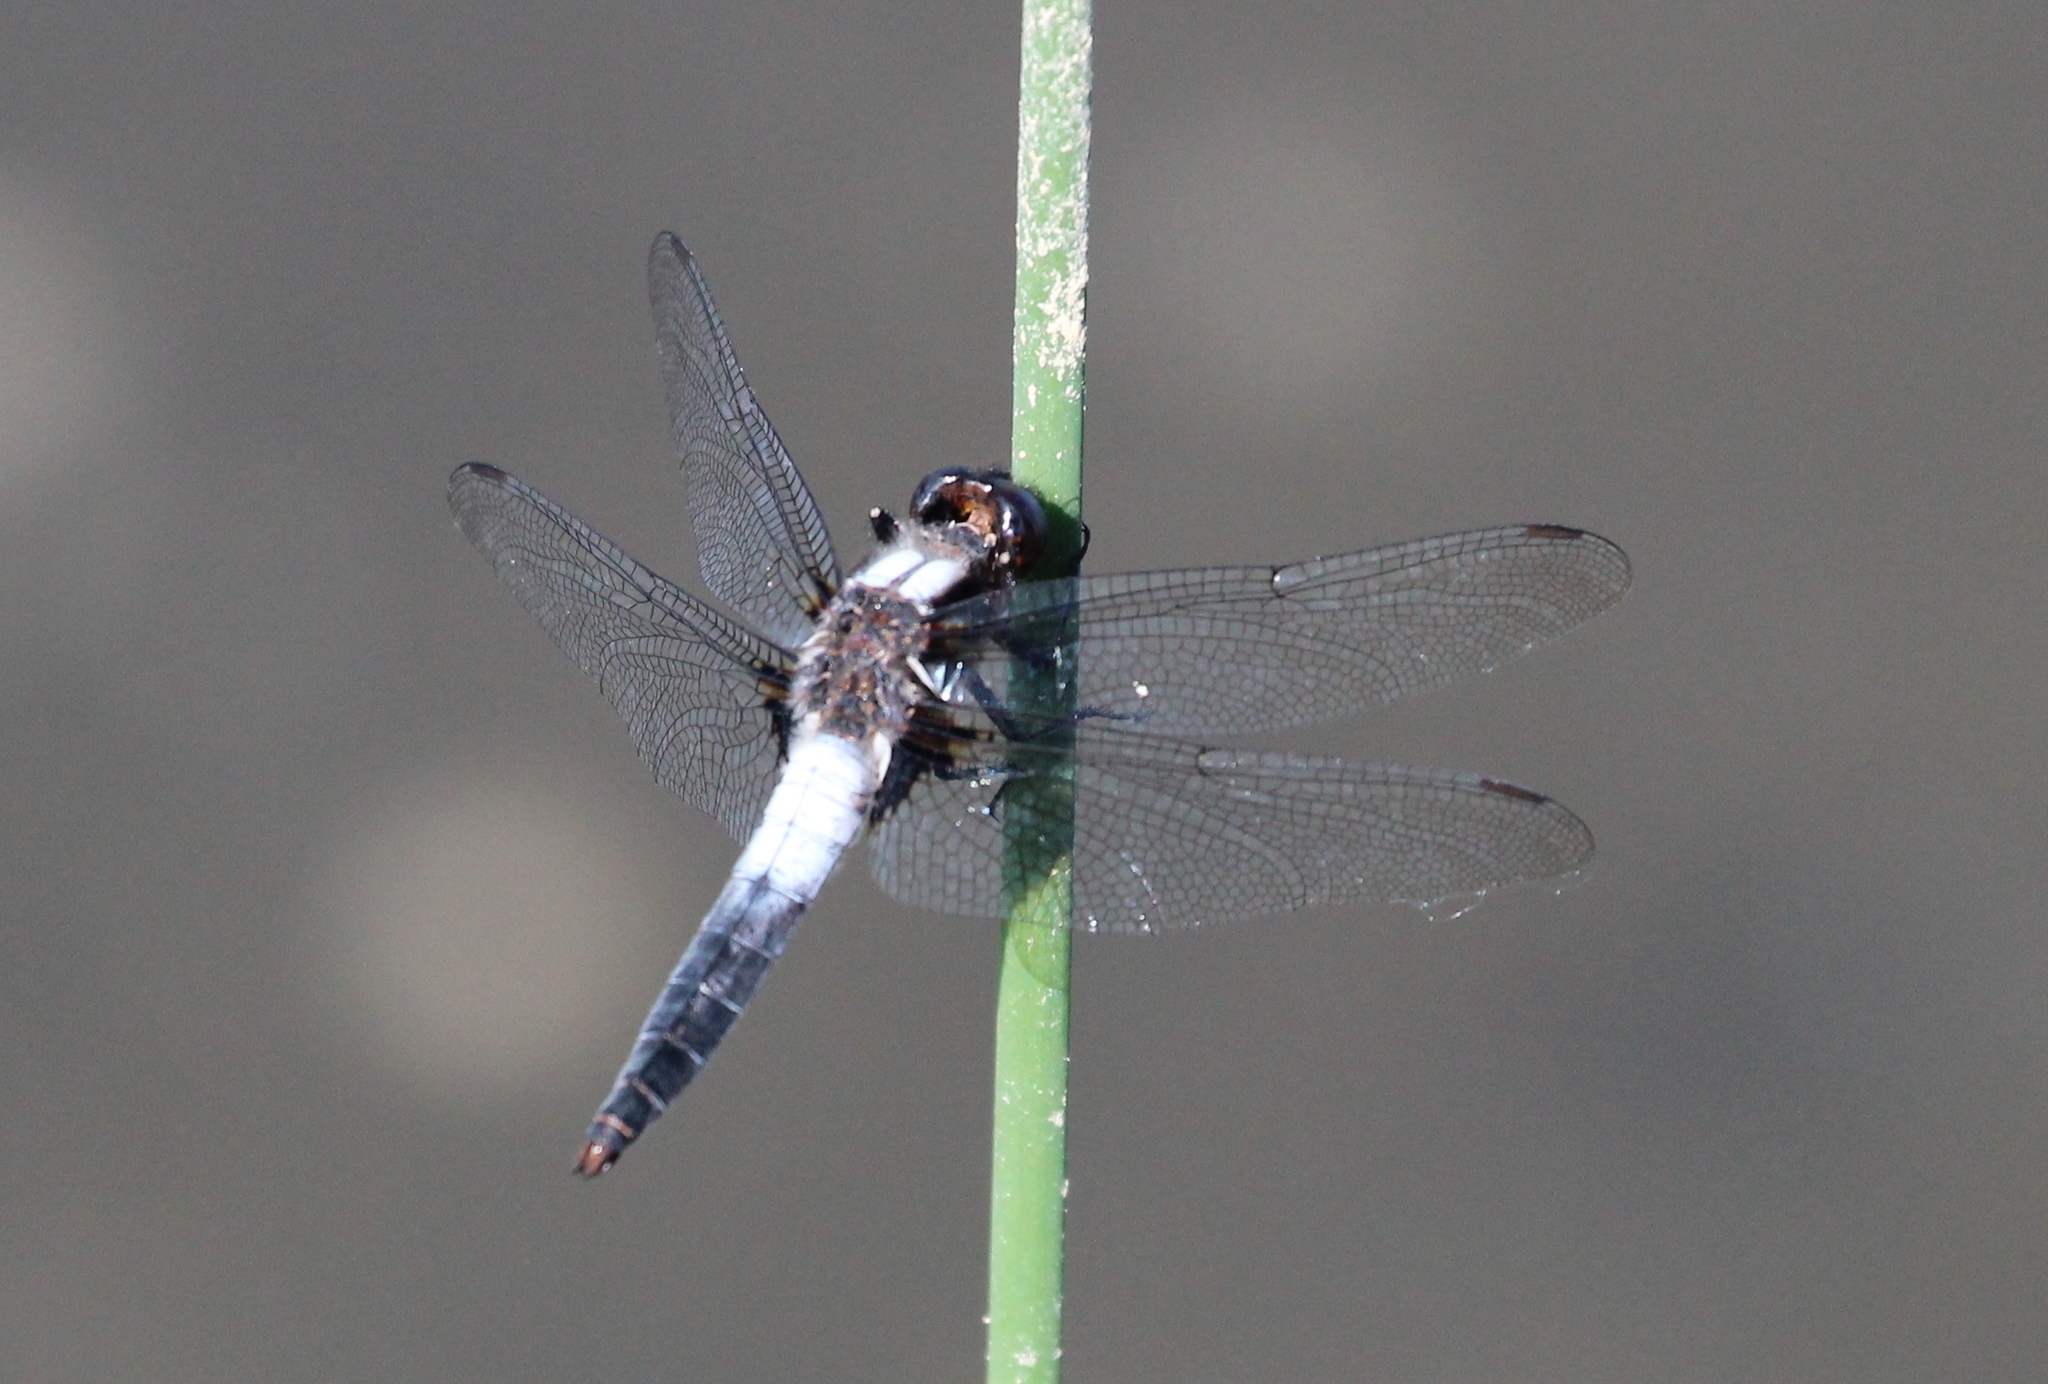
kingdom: Animalia
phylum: Arthropoda
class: Insecta
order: Odonata
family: Libellulidae
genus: Ladona
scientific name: Ladona julia
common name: Chalk-fronted corporal
